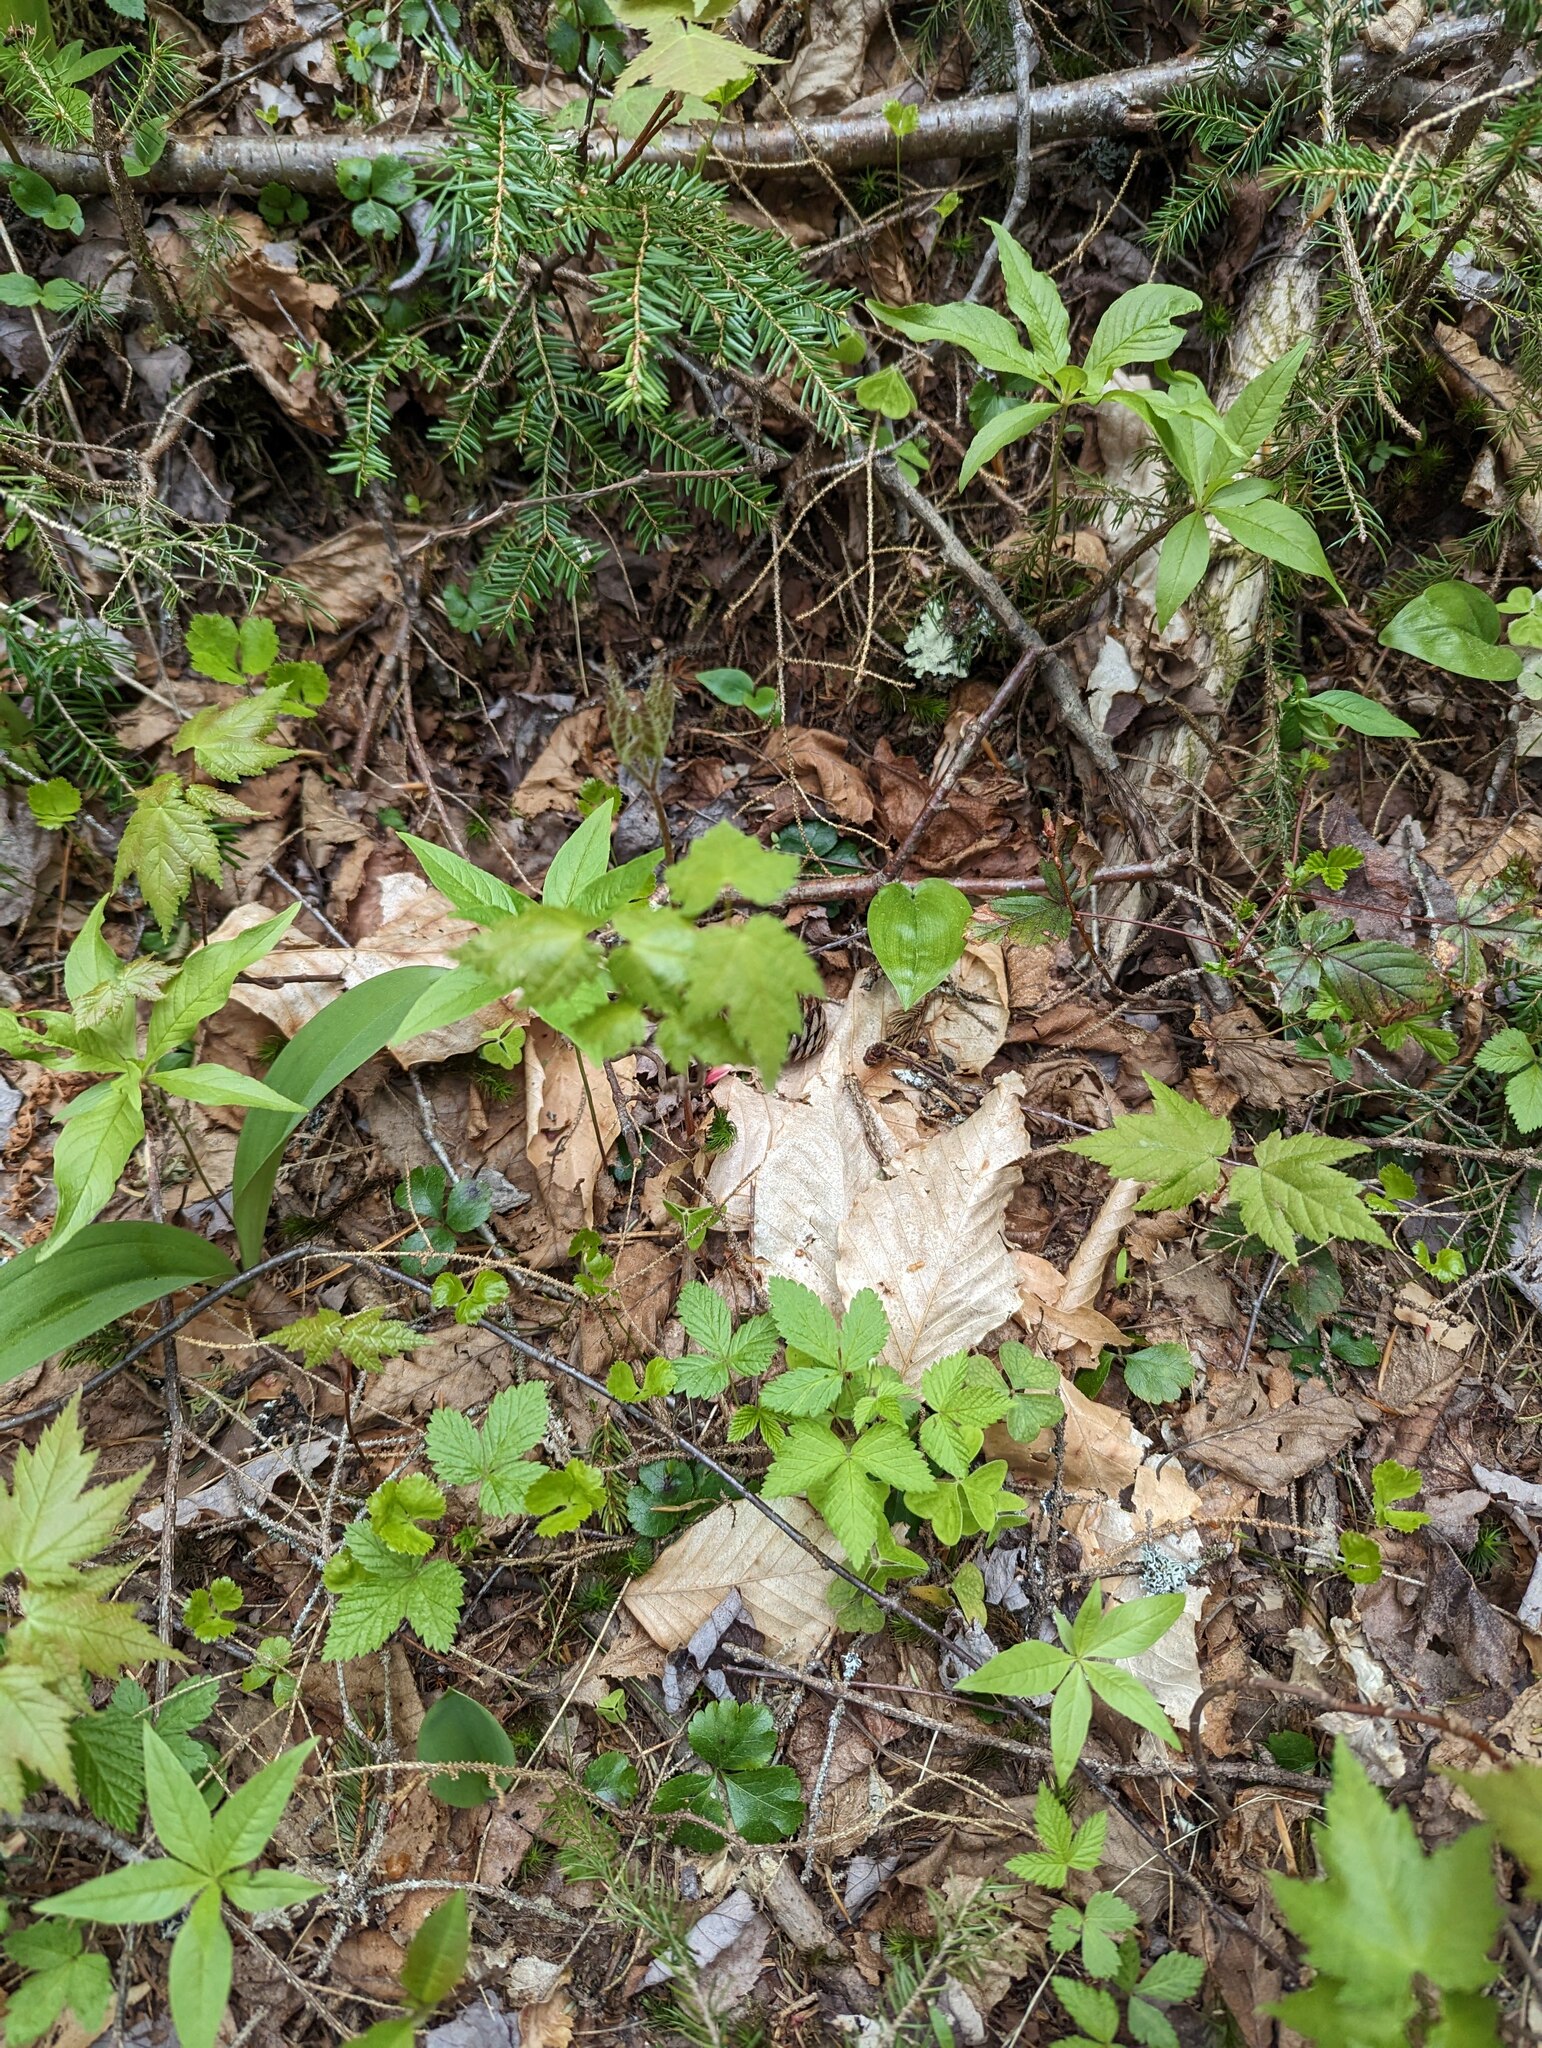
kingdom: Plantae
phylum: Tracheophyta
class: Magnoliopsida
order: Sapindales
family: Sapindaceae
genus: Acer
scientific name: Acer rubrum
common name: Red maple
